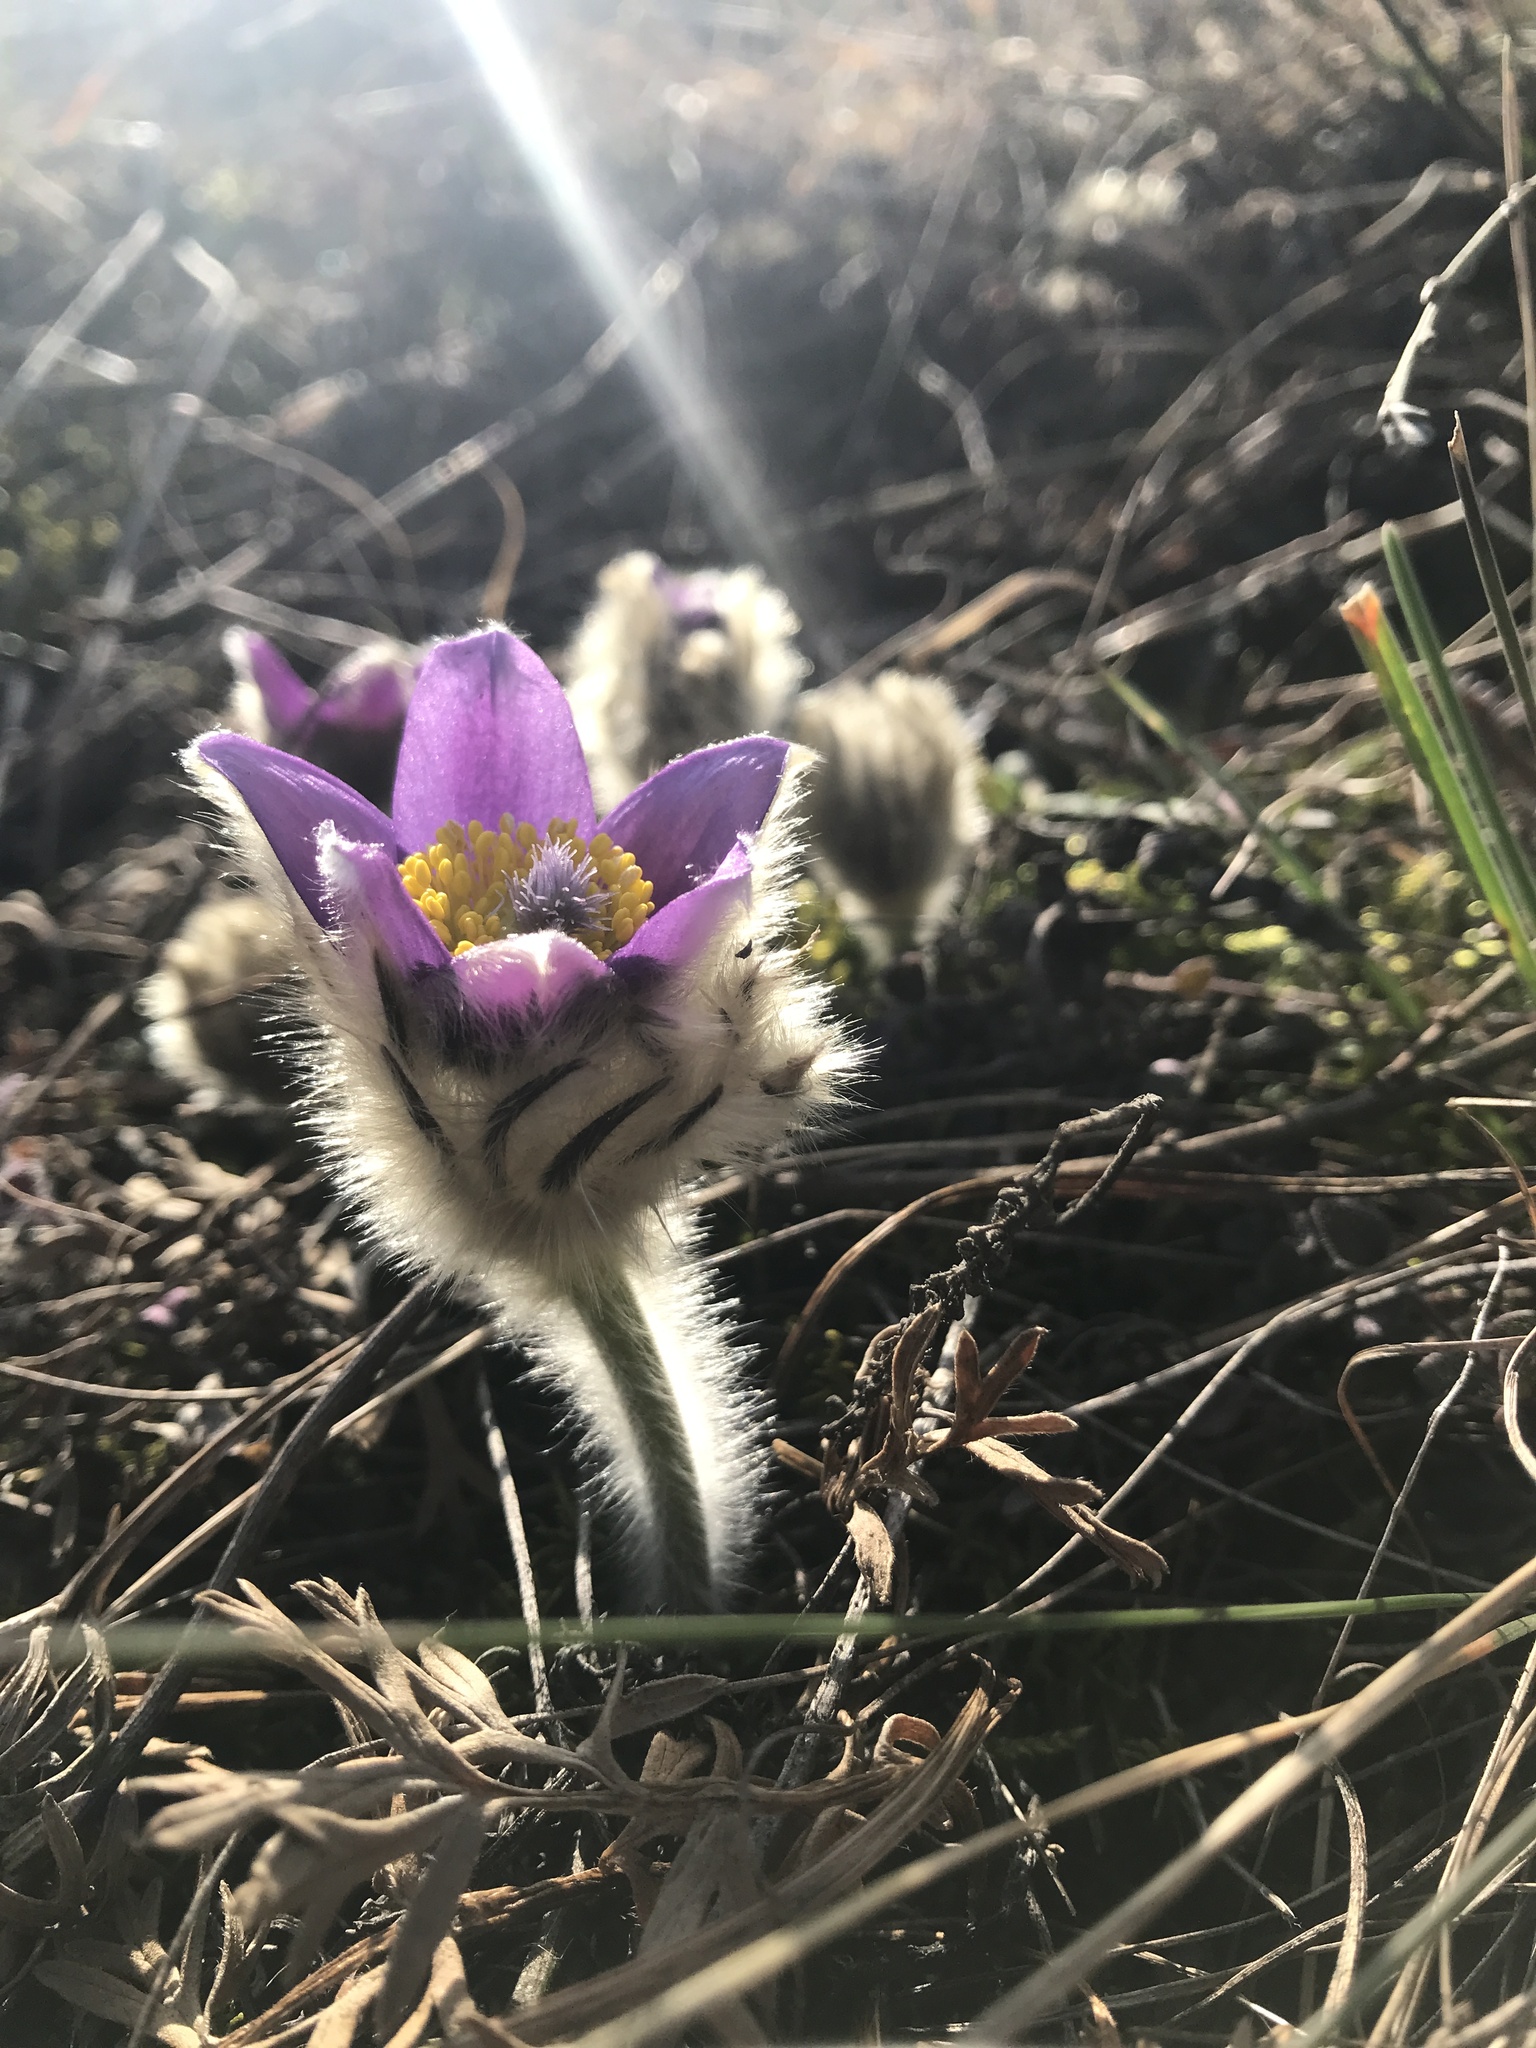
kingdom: Plantae
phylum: Tracheophyta
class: Magnoliopsida
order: Ranunculales
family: Ranunculaceae
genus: Pulsatilla
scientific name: Pulsatilla grandis
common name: Greater pasque flower
